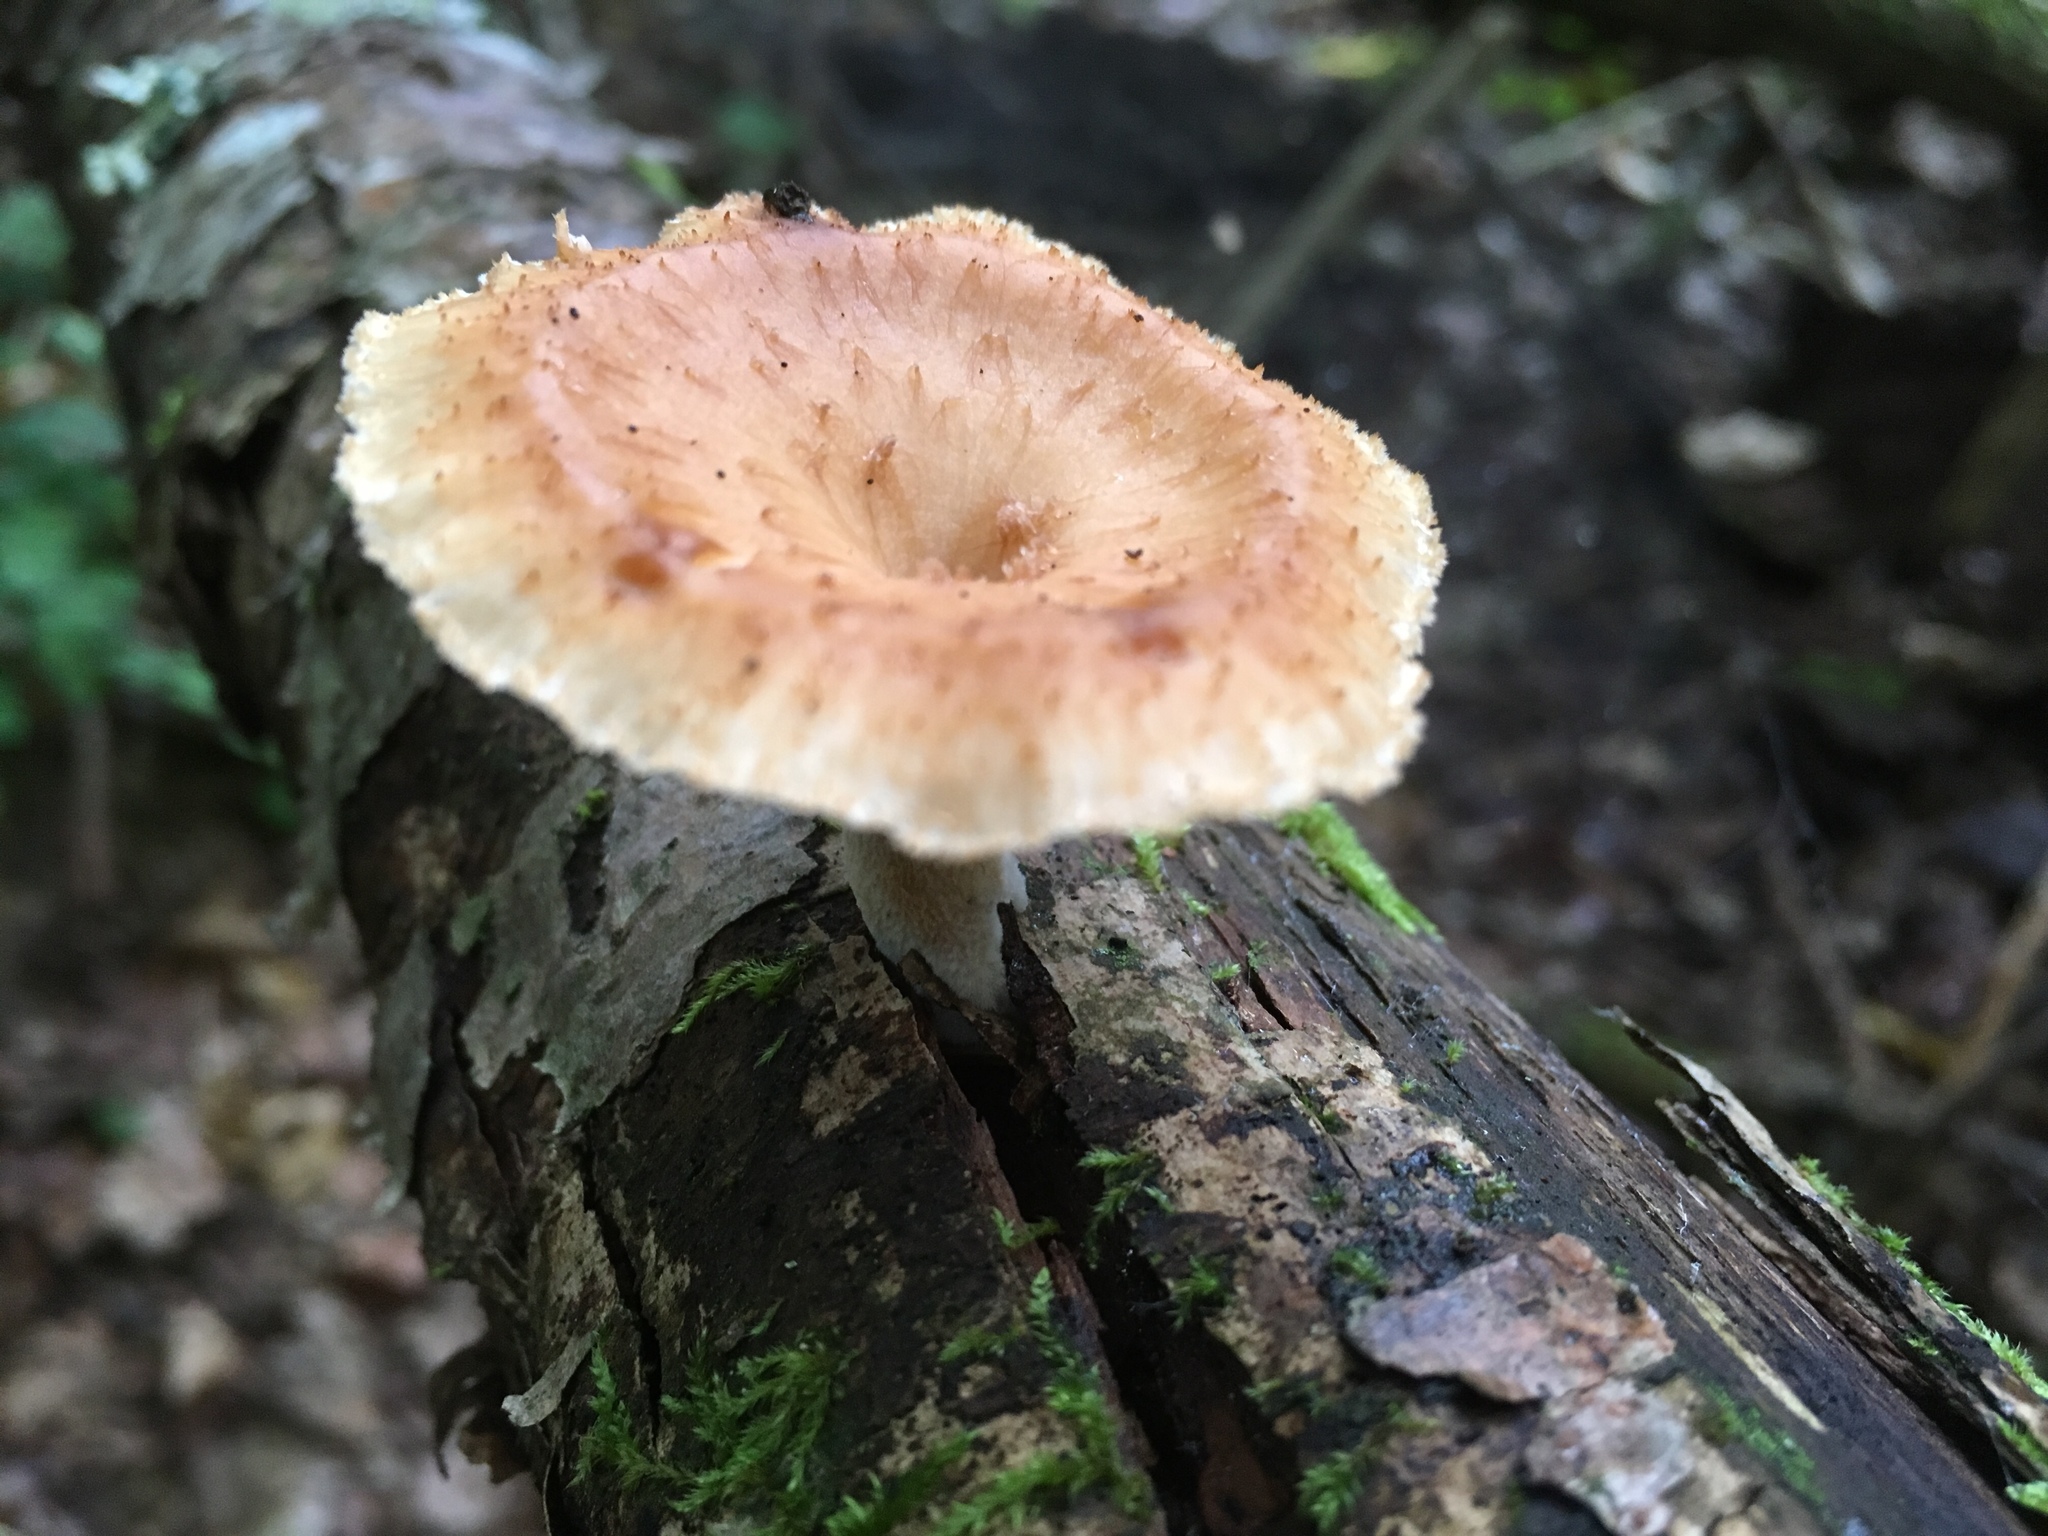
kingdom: Fungi
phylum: Basidiomycota
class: Agaricomycetes
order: Polyporales
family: Polyporaceae
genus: Polyporus
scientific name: Polyporus tuberaster
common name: Tuberous polypore
